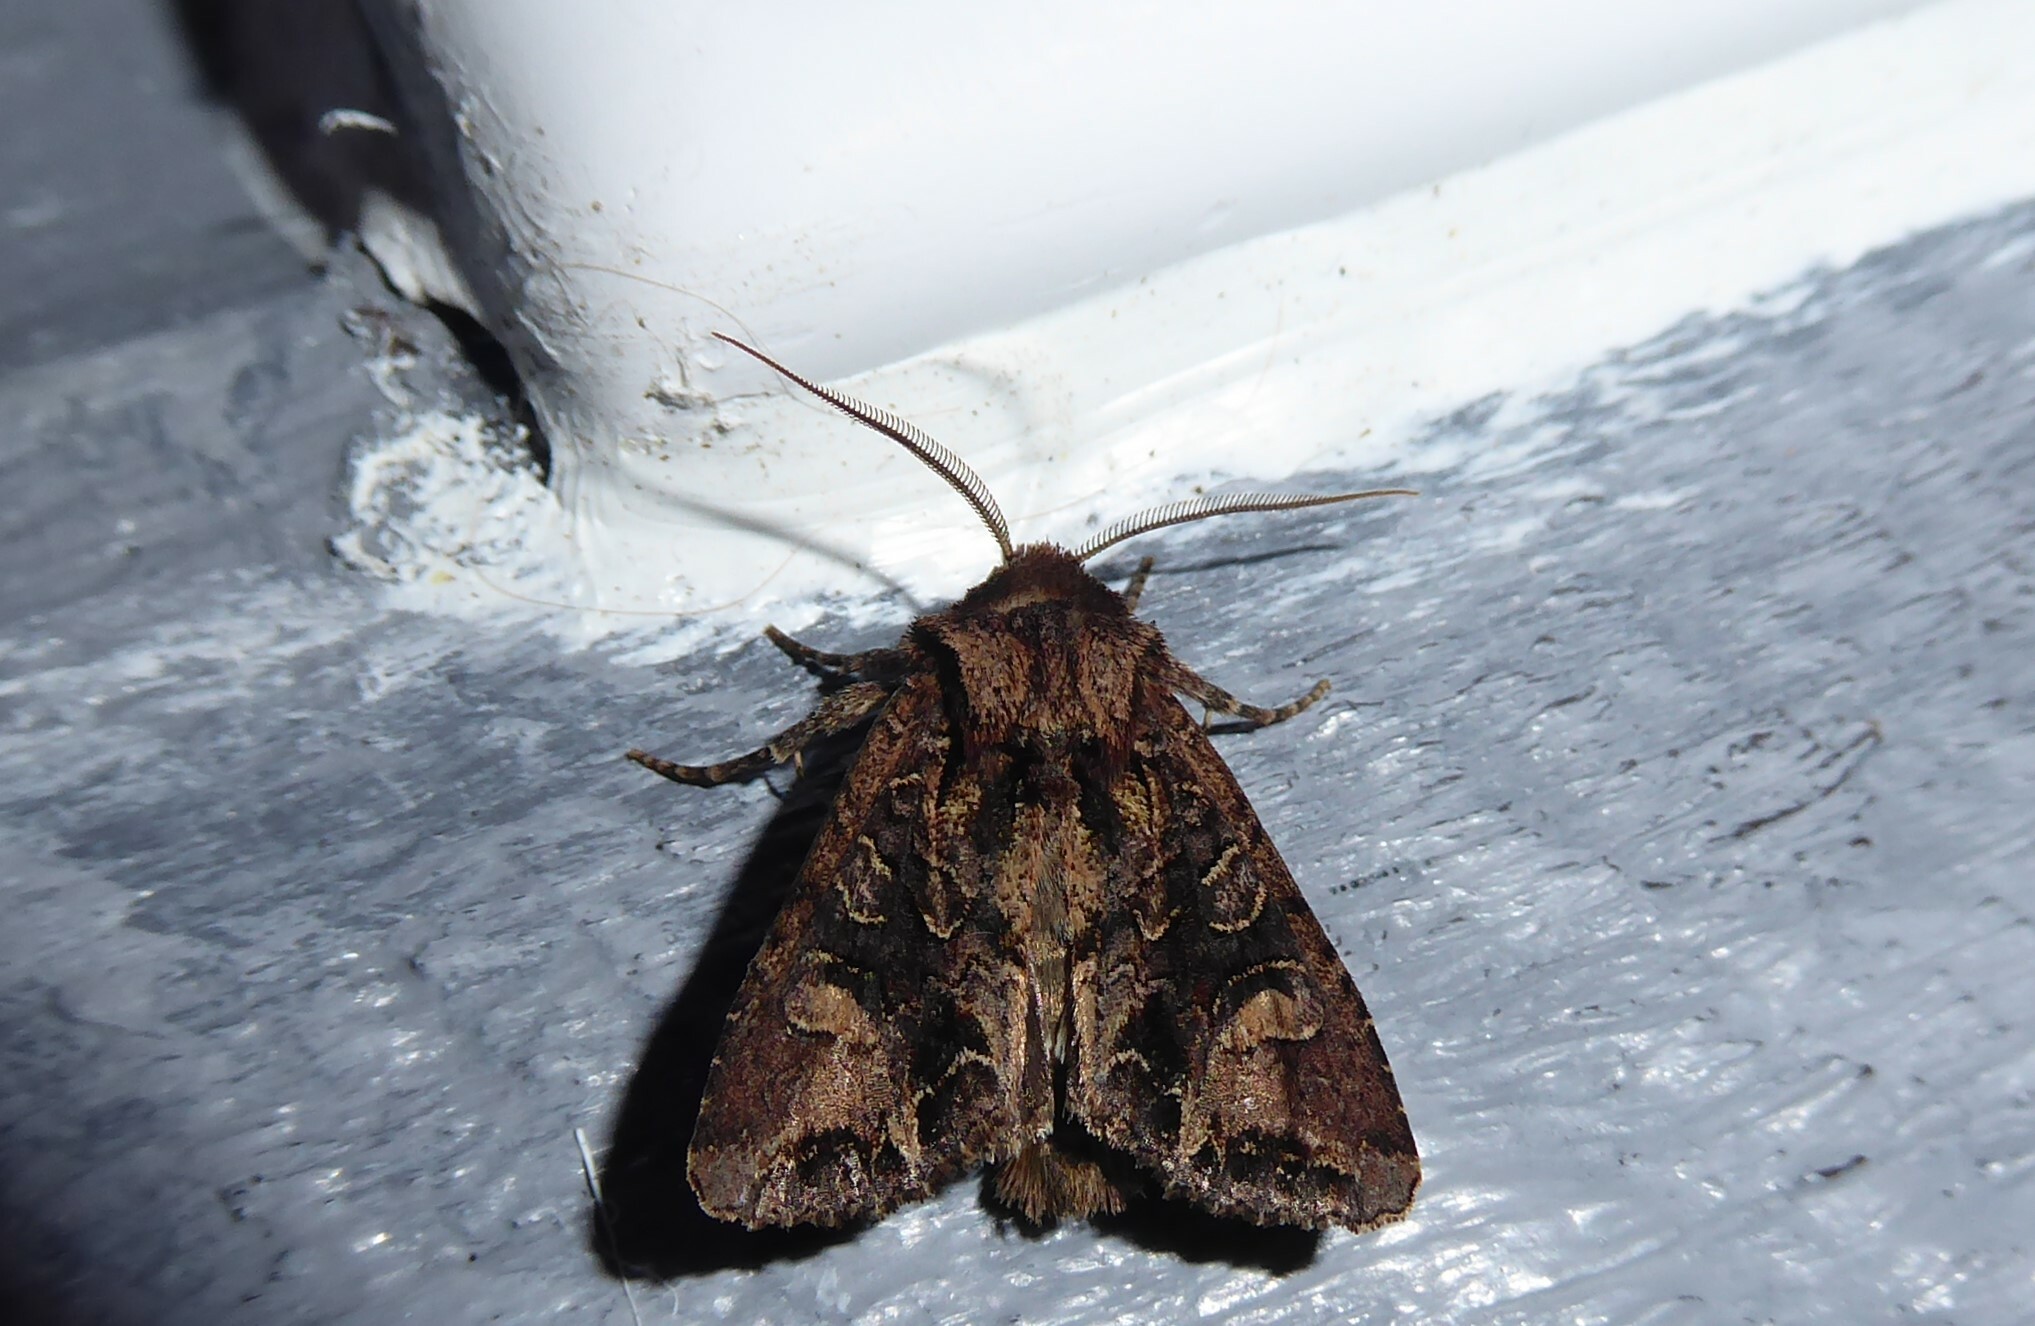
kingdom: Animalia
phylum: Arthropoda
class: Insecta
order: Lepidoptera
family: Noctuidae
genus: Ichneutica
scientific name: Ichneutica insignis
